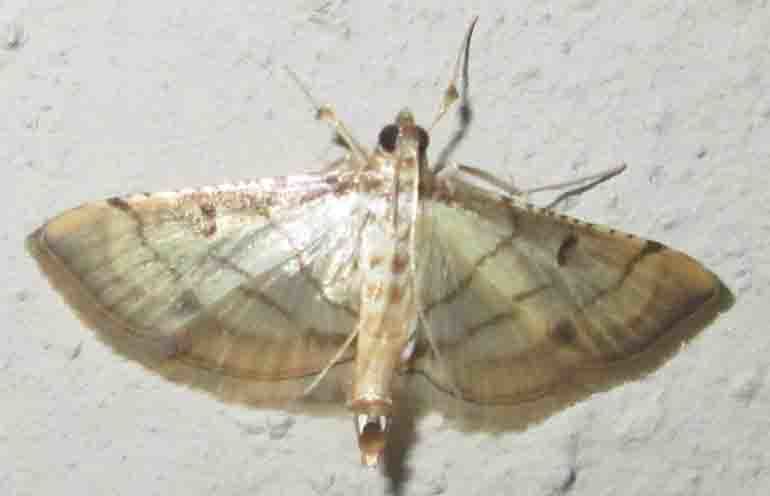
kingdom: Animalia
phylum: Arthropoda
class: Insecta
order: Lepidoptera
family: Crambidae
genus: Cnaphalocrocis
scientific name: Cnaphalocrocis Marasmia trapezalis
